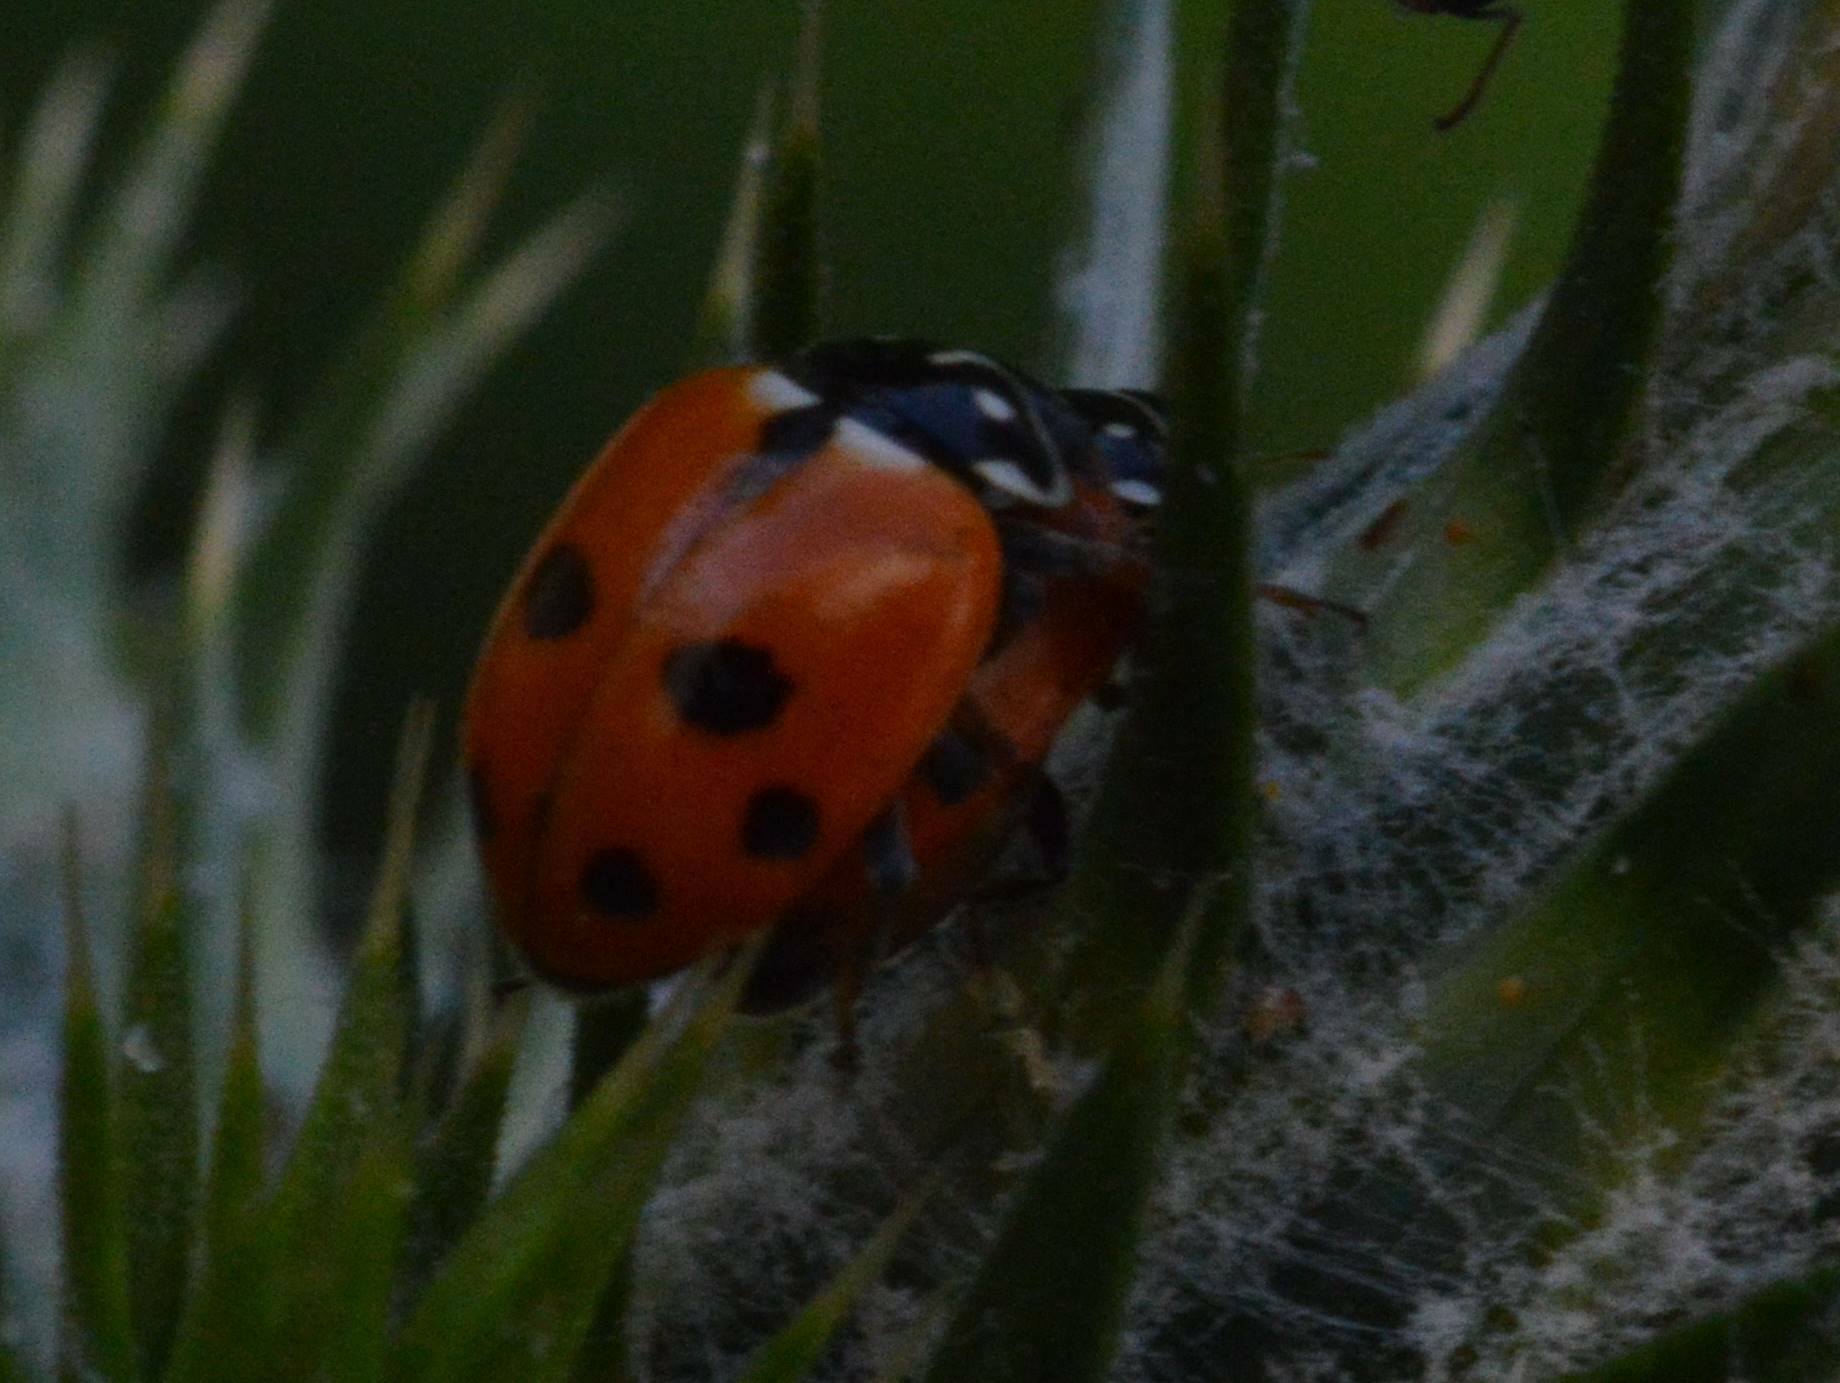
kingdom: Animalia
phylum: Arthropoda
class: Insecta
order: Coleoptera
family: Coccinellidae
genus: Hippodamia
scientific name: Hippodamia variegata
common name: Ladybird beetle
